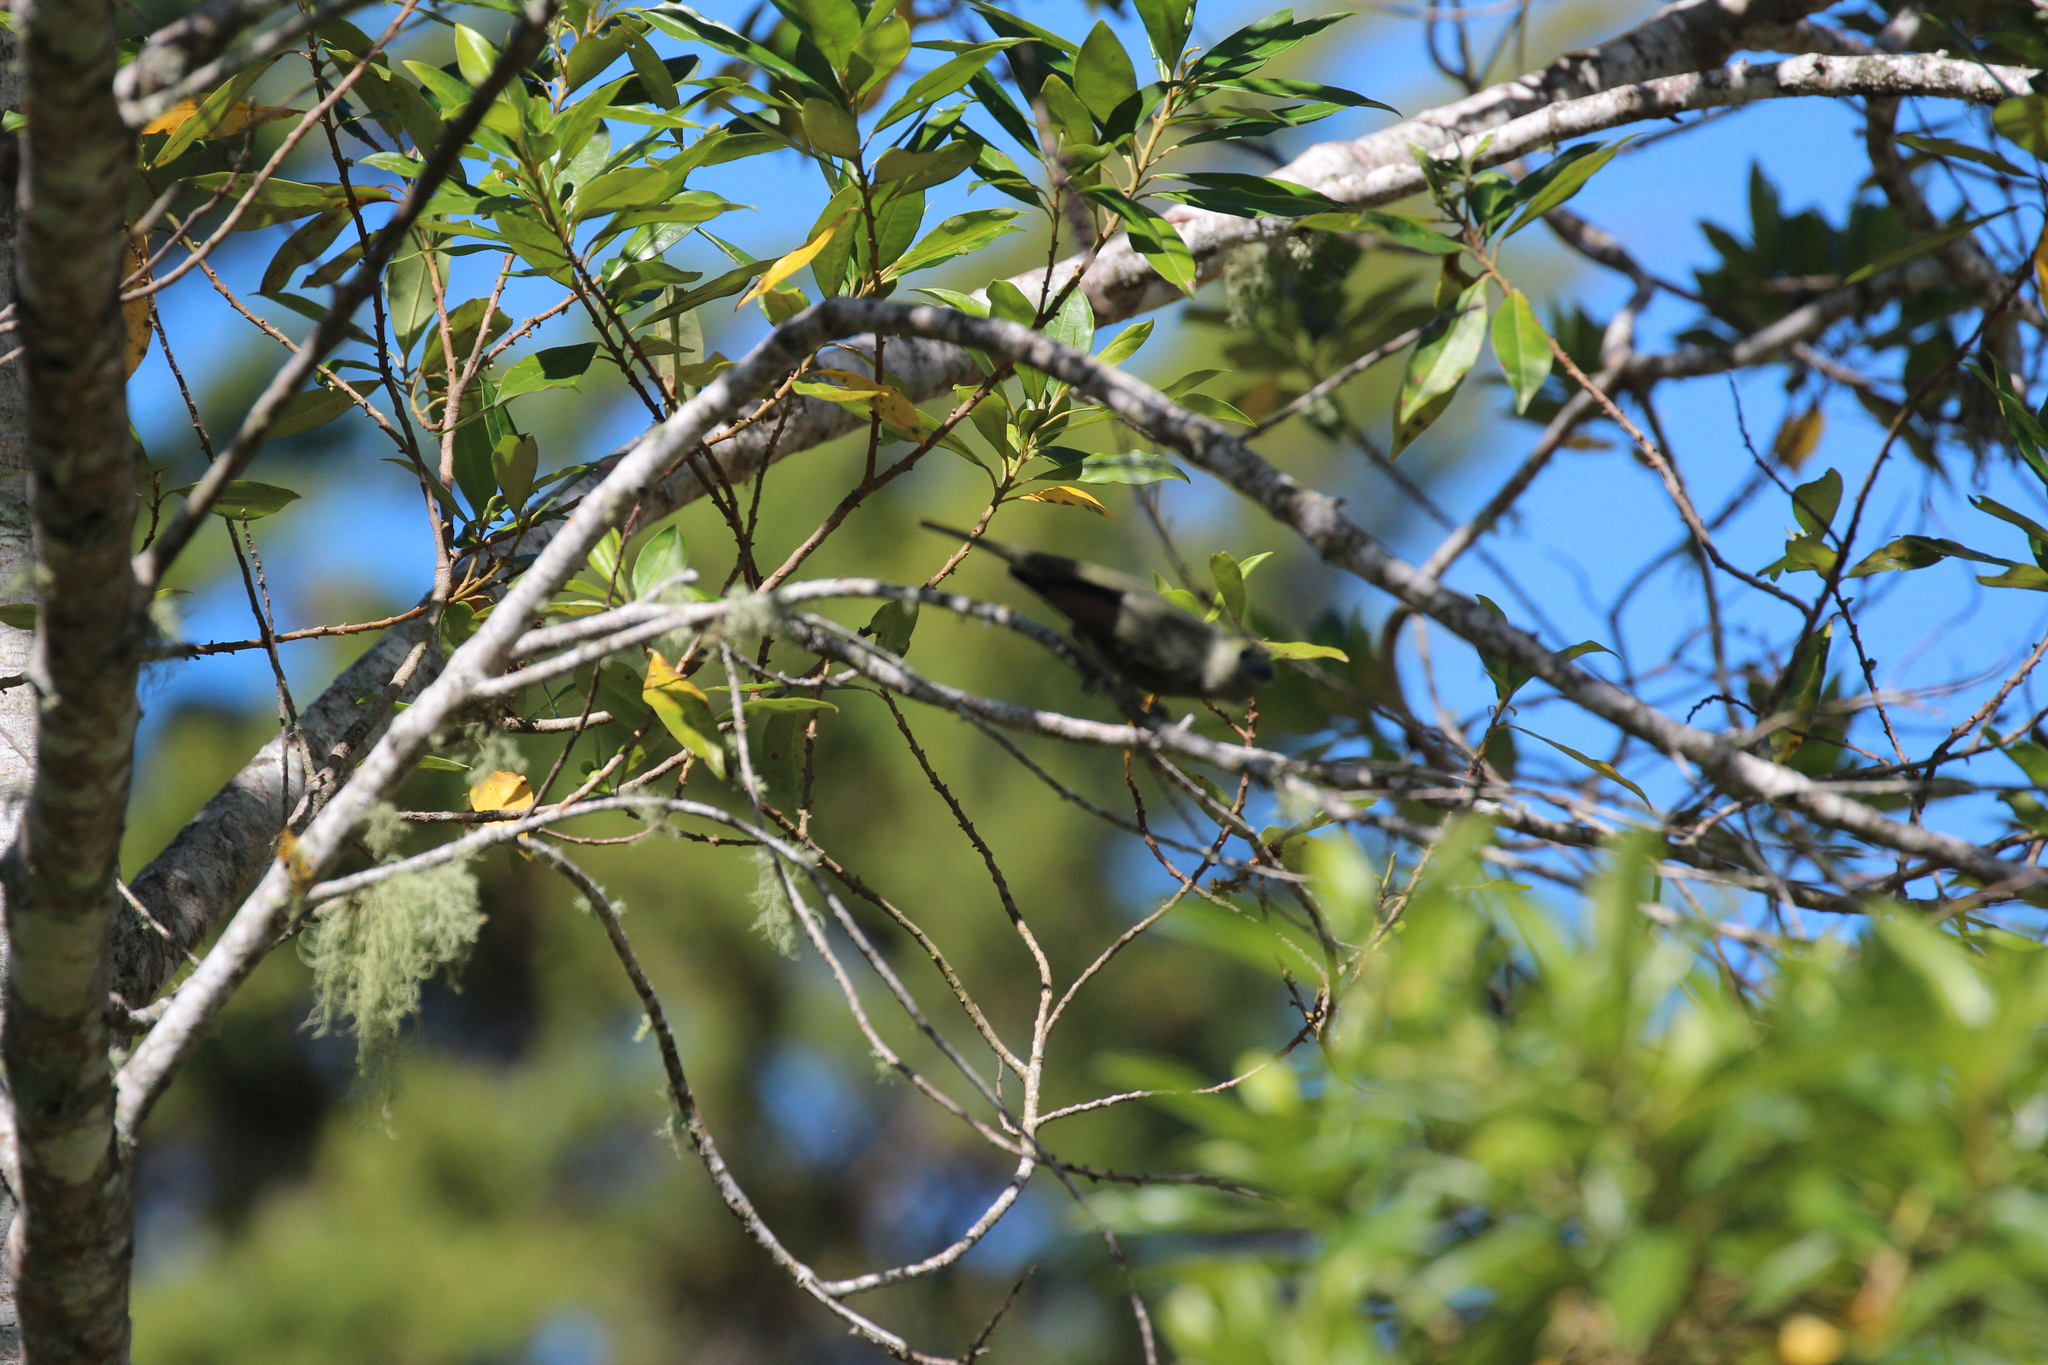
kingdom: Animalia
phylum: Chordata
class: Aves
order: Passeriformes
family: Thraupidae
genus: Thraupis
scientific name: Thraupis palmarum
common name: Palm tanager
